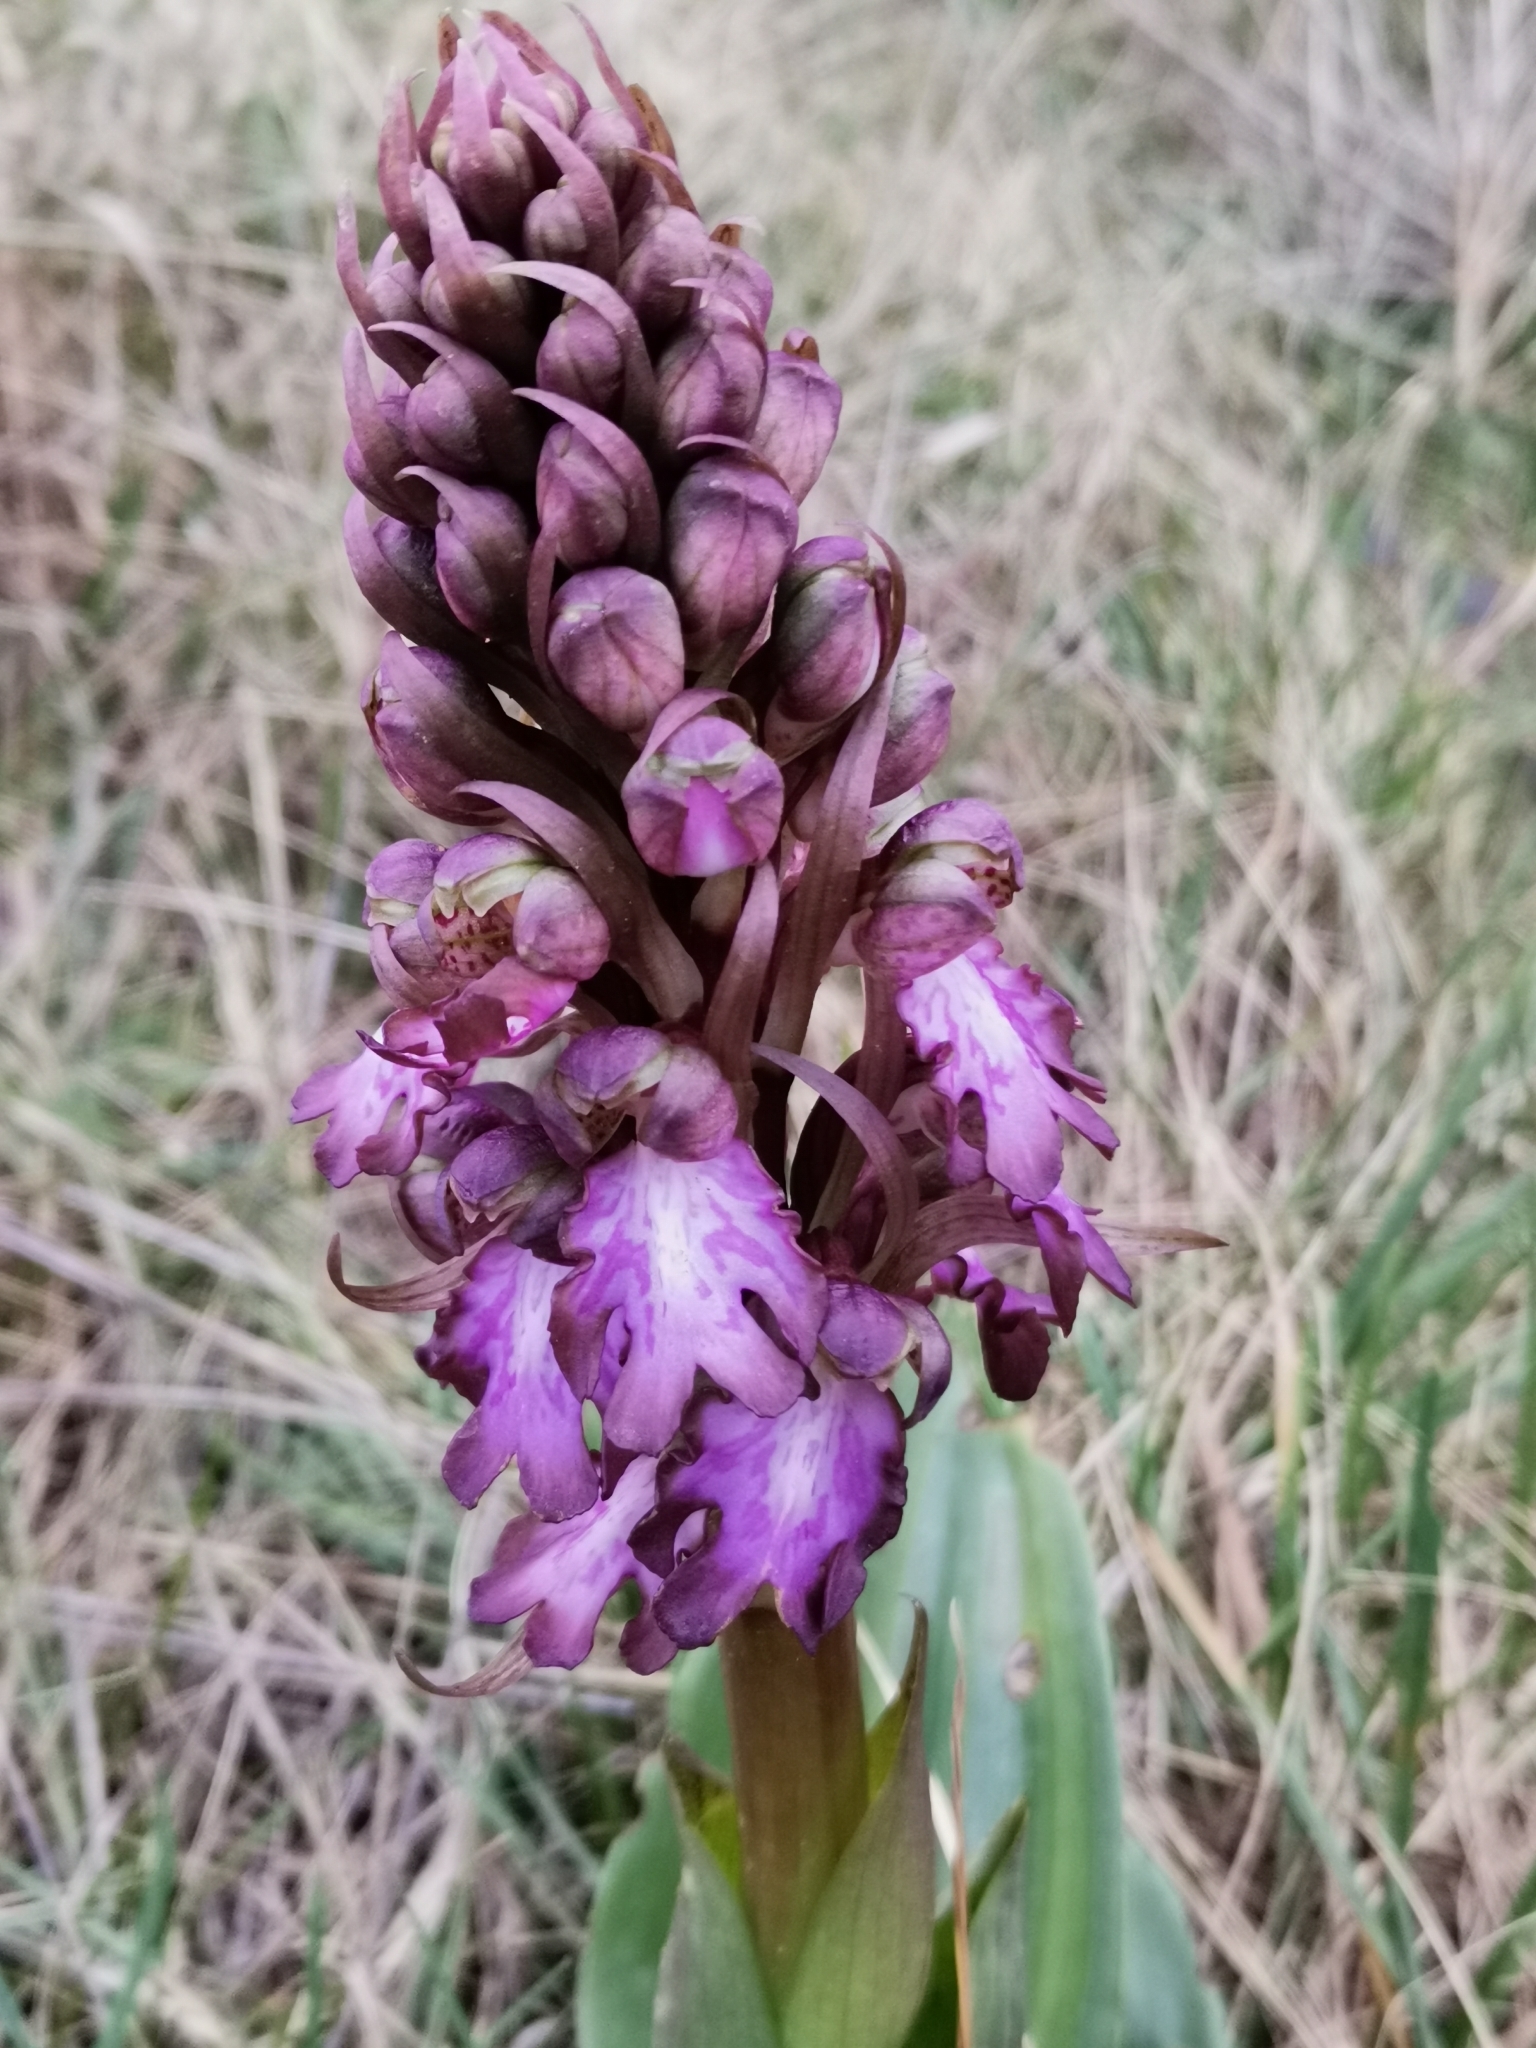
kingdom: Plantae
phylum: Tracheophyta
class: Liliopsida
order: Asparagales
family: Orchidaceae
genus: Himantoglossum
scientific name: Himantoglossum robertianum
